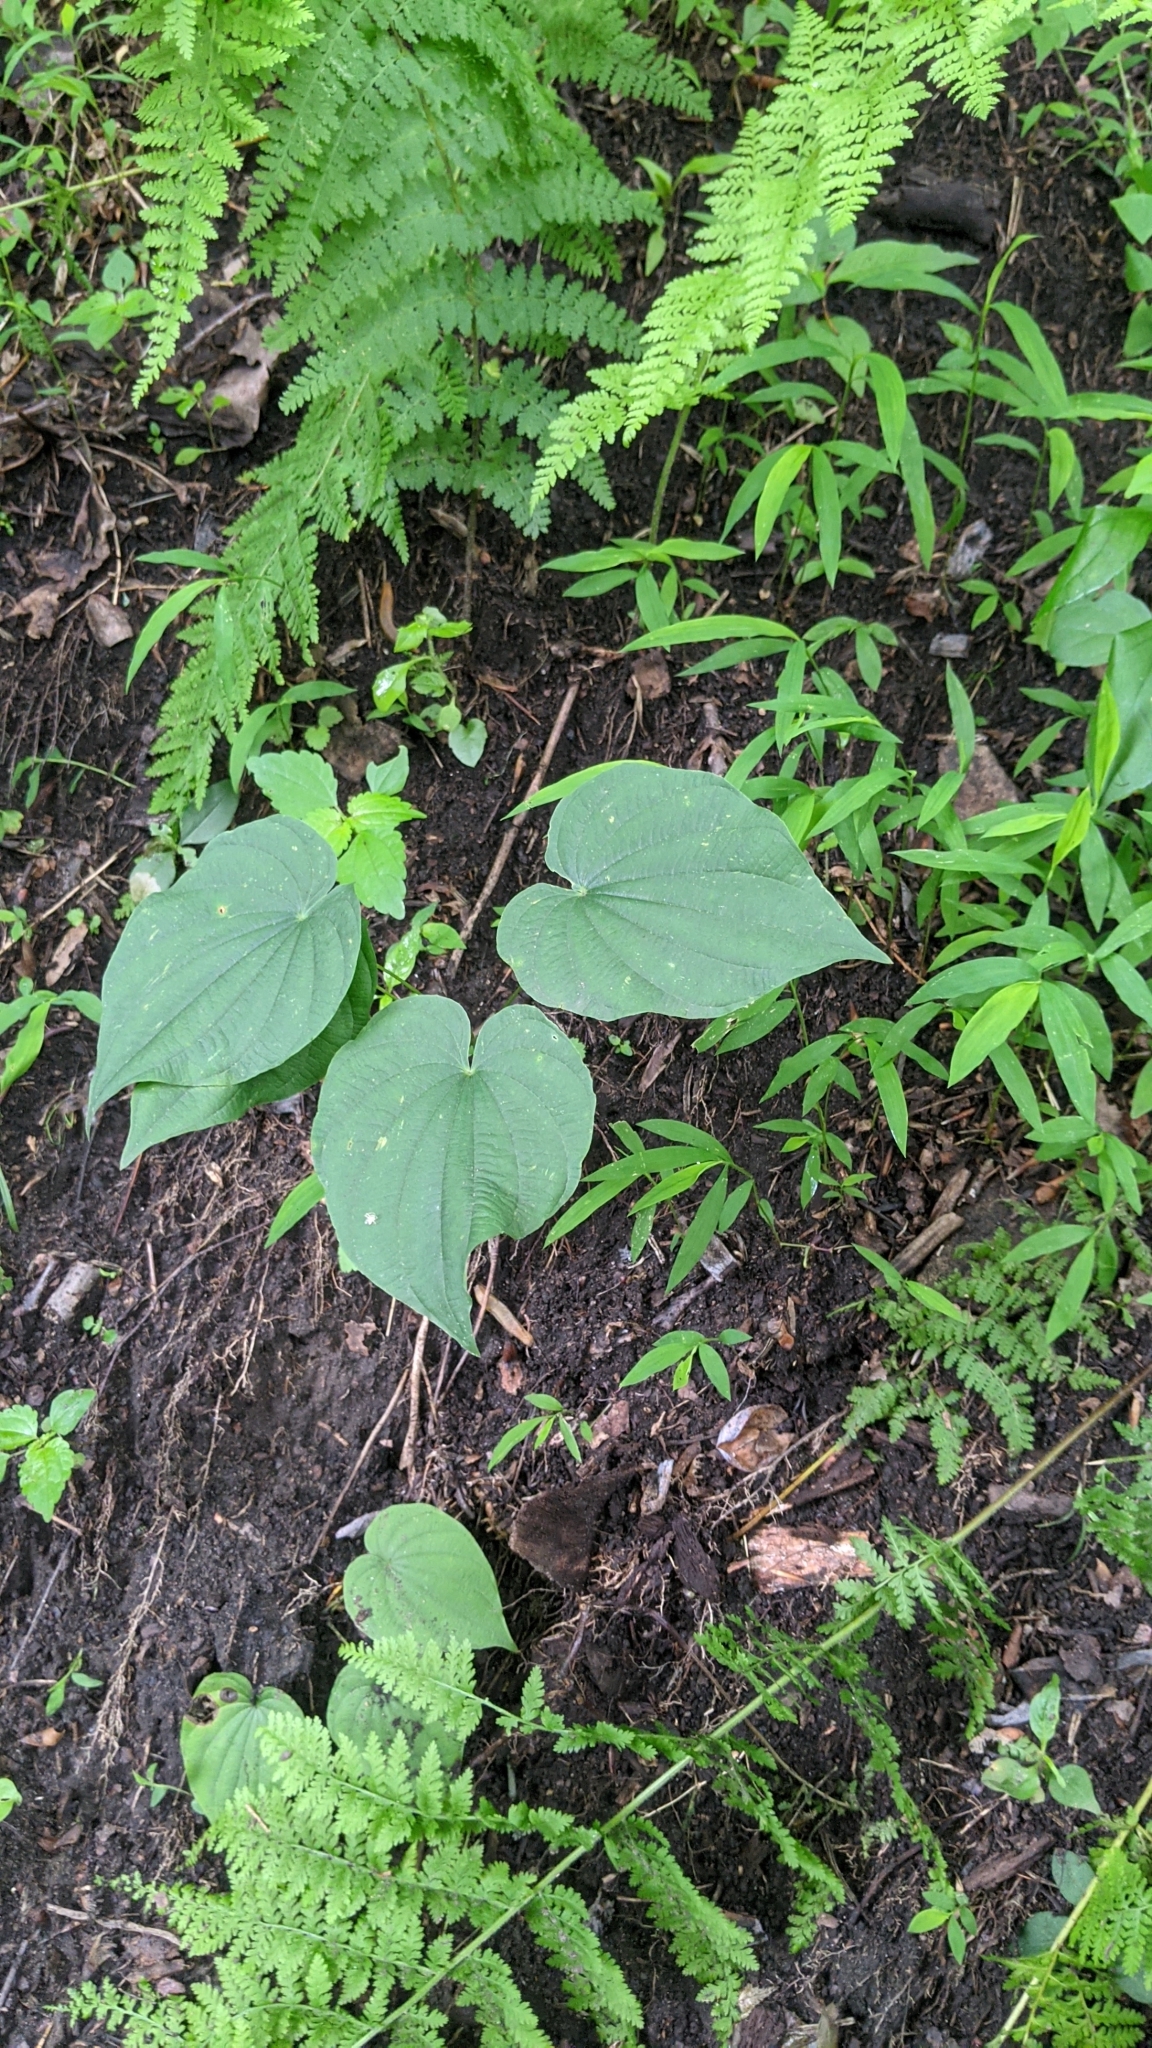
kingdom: Plantae
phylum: Tracheophyta
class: Liliopsida
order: Dioscoreales
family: Dioscoreaceae
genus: Dioscorea
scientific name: Dioscorea villosa
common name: Wild yam
